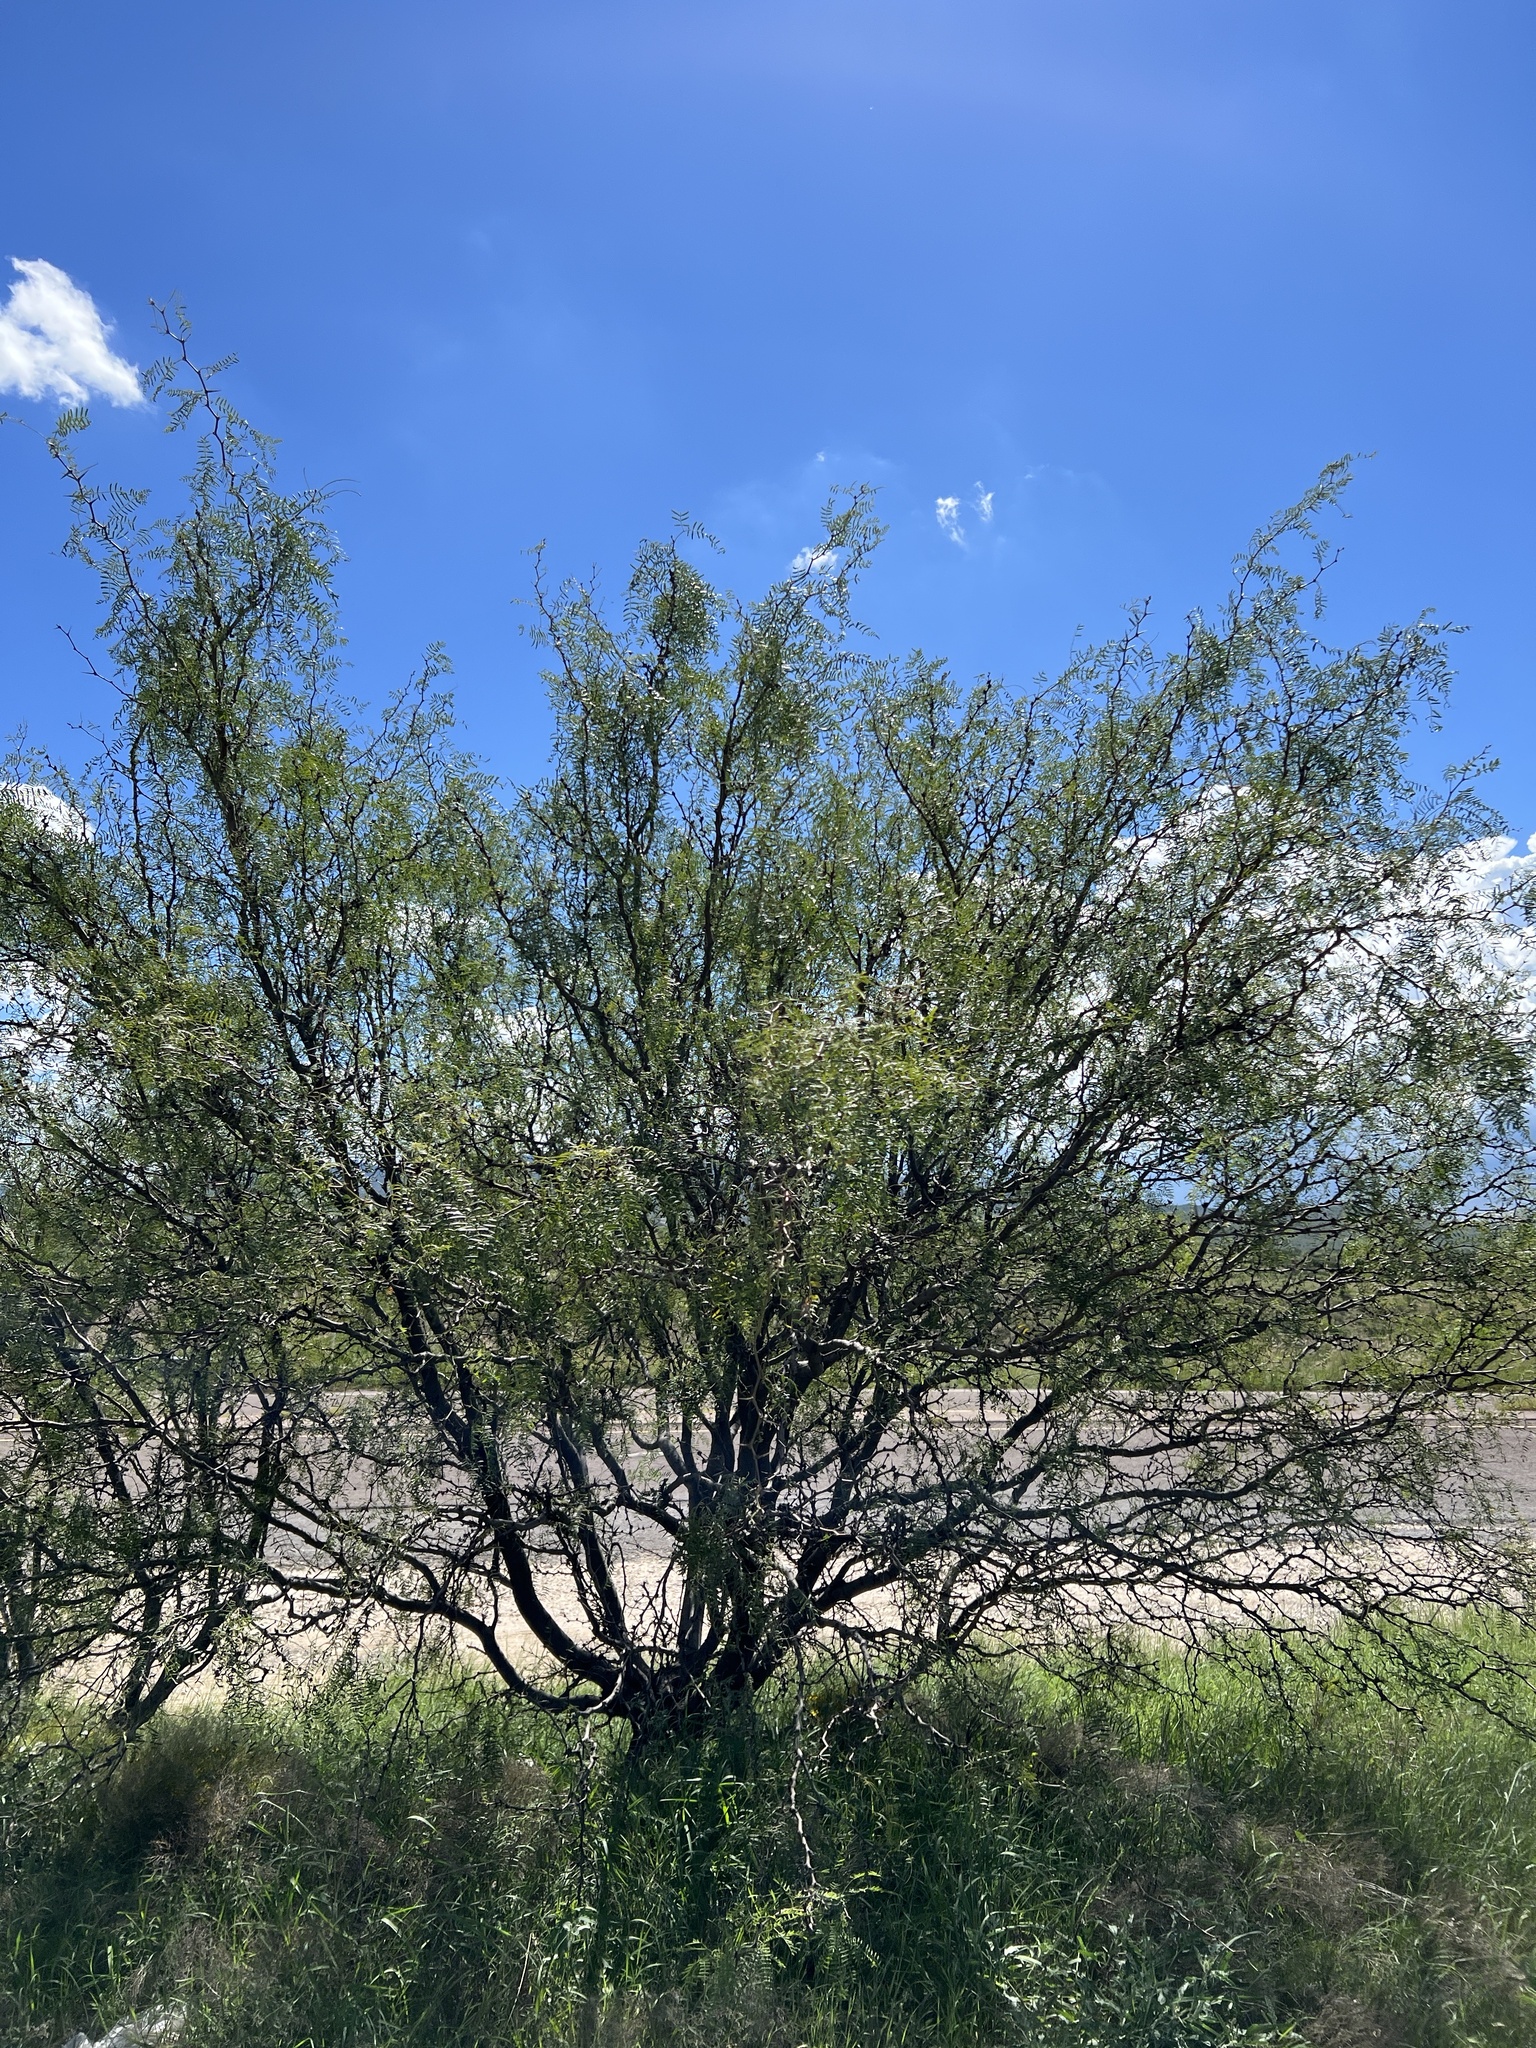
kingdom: Plantae
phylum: Tracheophyta
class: Magnoliopsida
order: Fabales
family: Fabaceae
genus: Prosopis
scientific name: Prosopis glandulosa
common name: Honey mesquite
